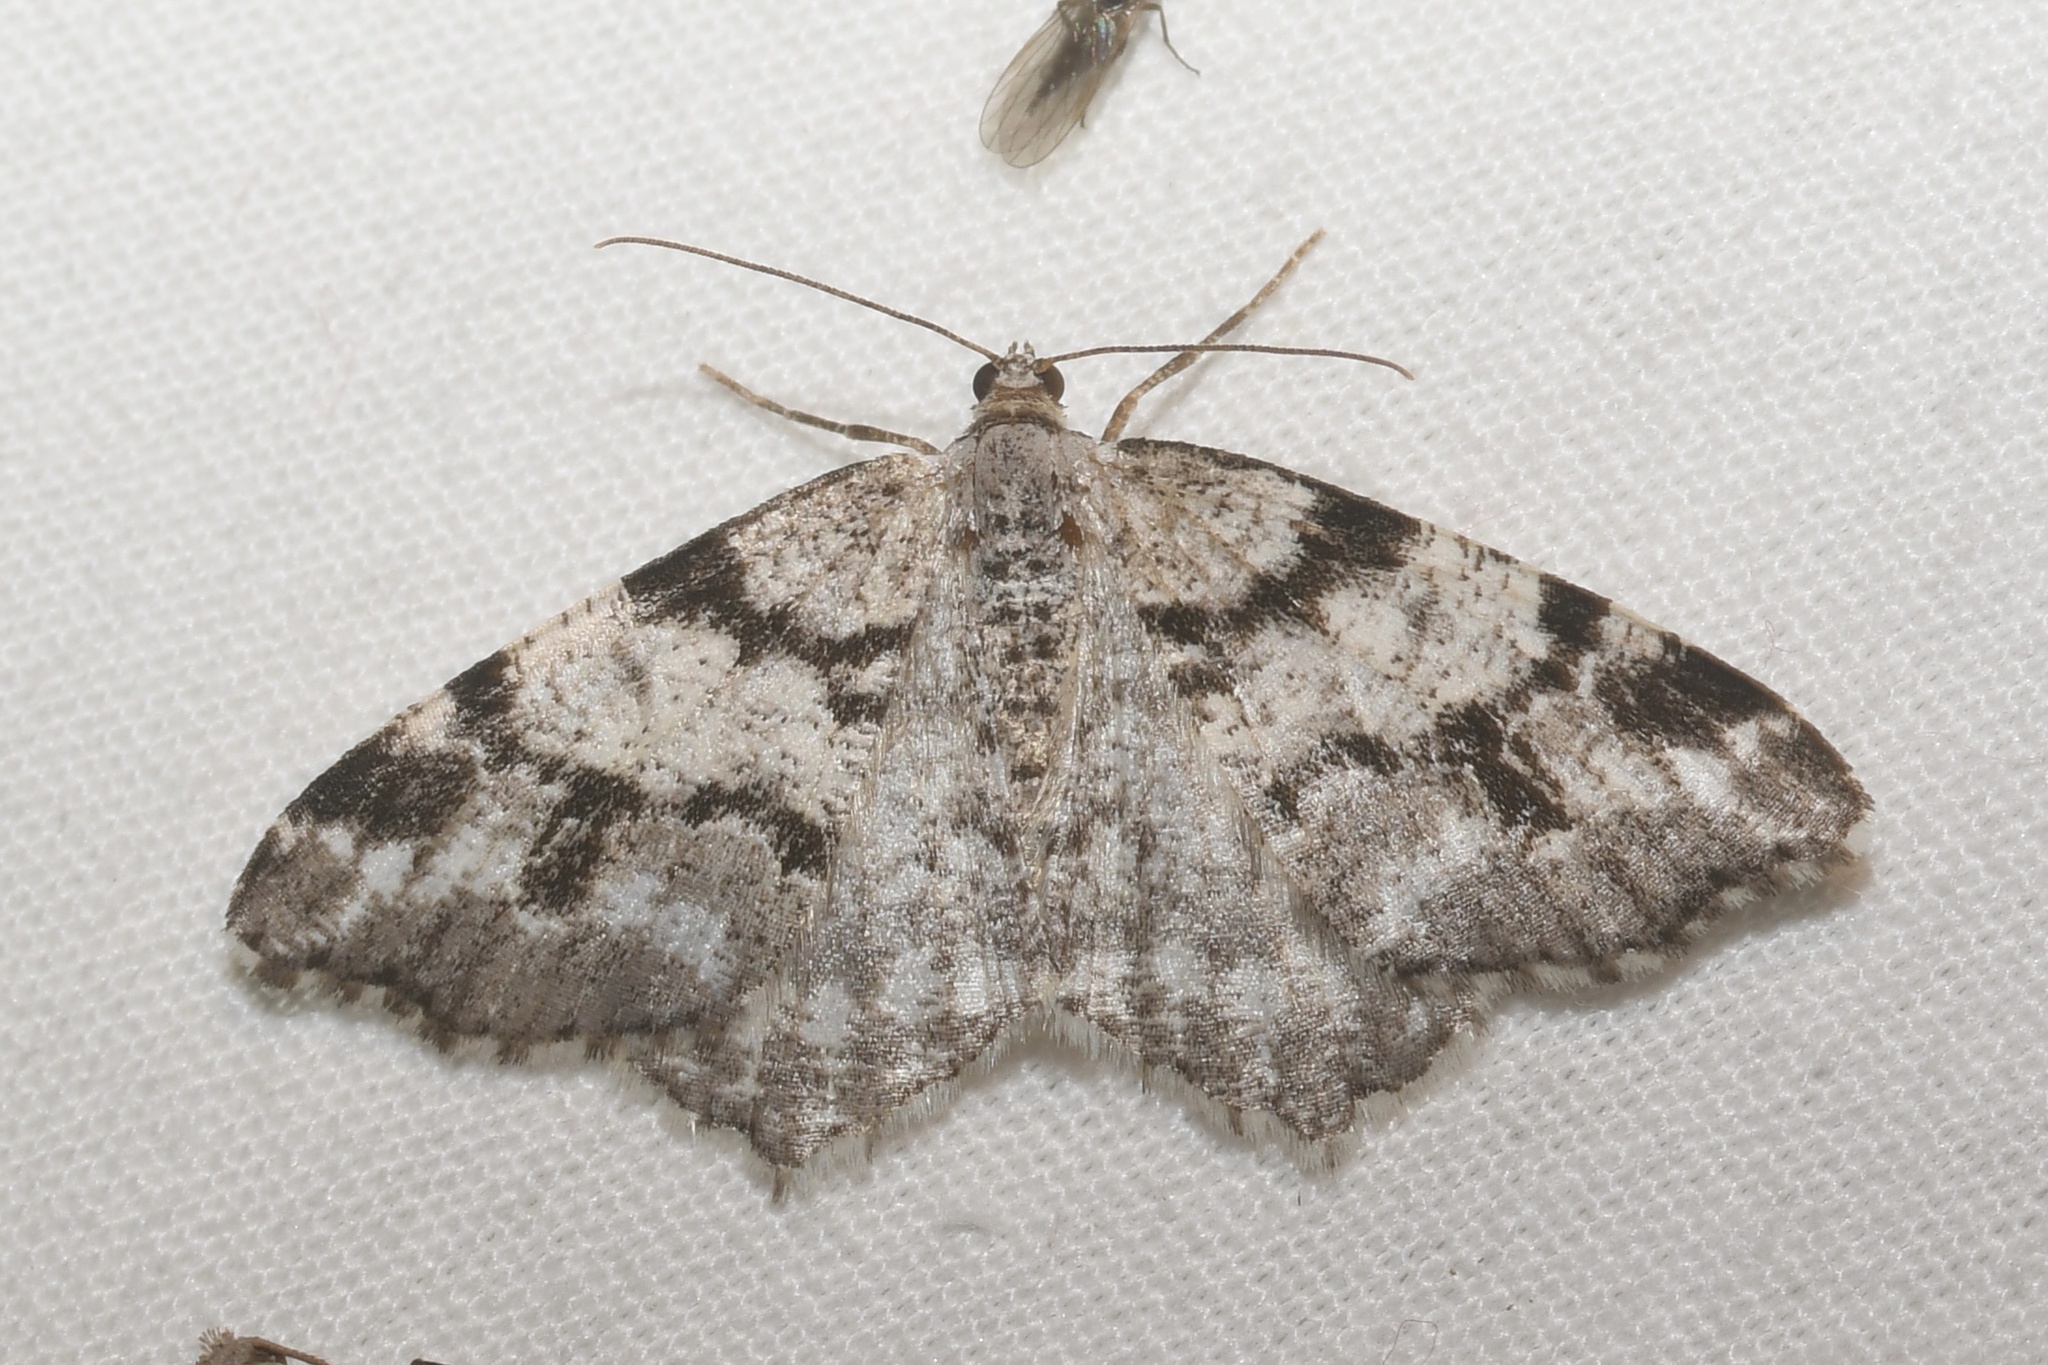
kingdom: Animalia
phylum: Arthropoda
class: Insecta
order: Lepidoptera
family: Geometridae
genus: Macaria
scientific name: Macaria pinistrobata
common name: White pine angle
